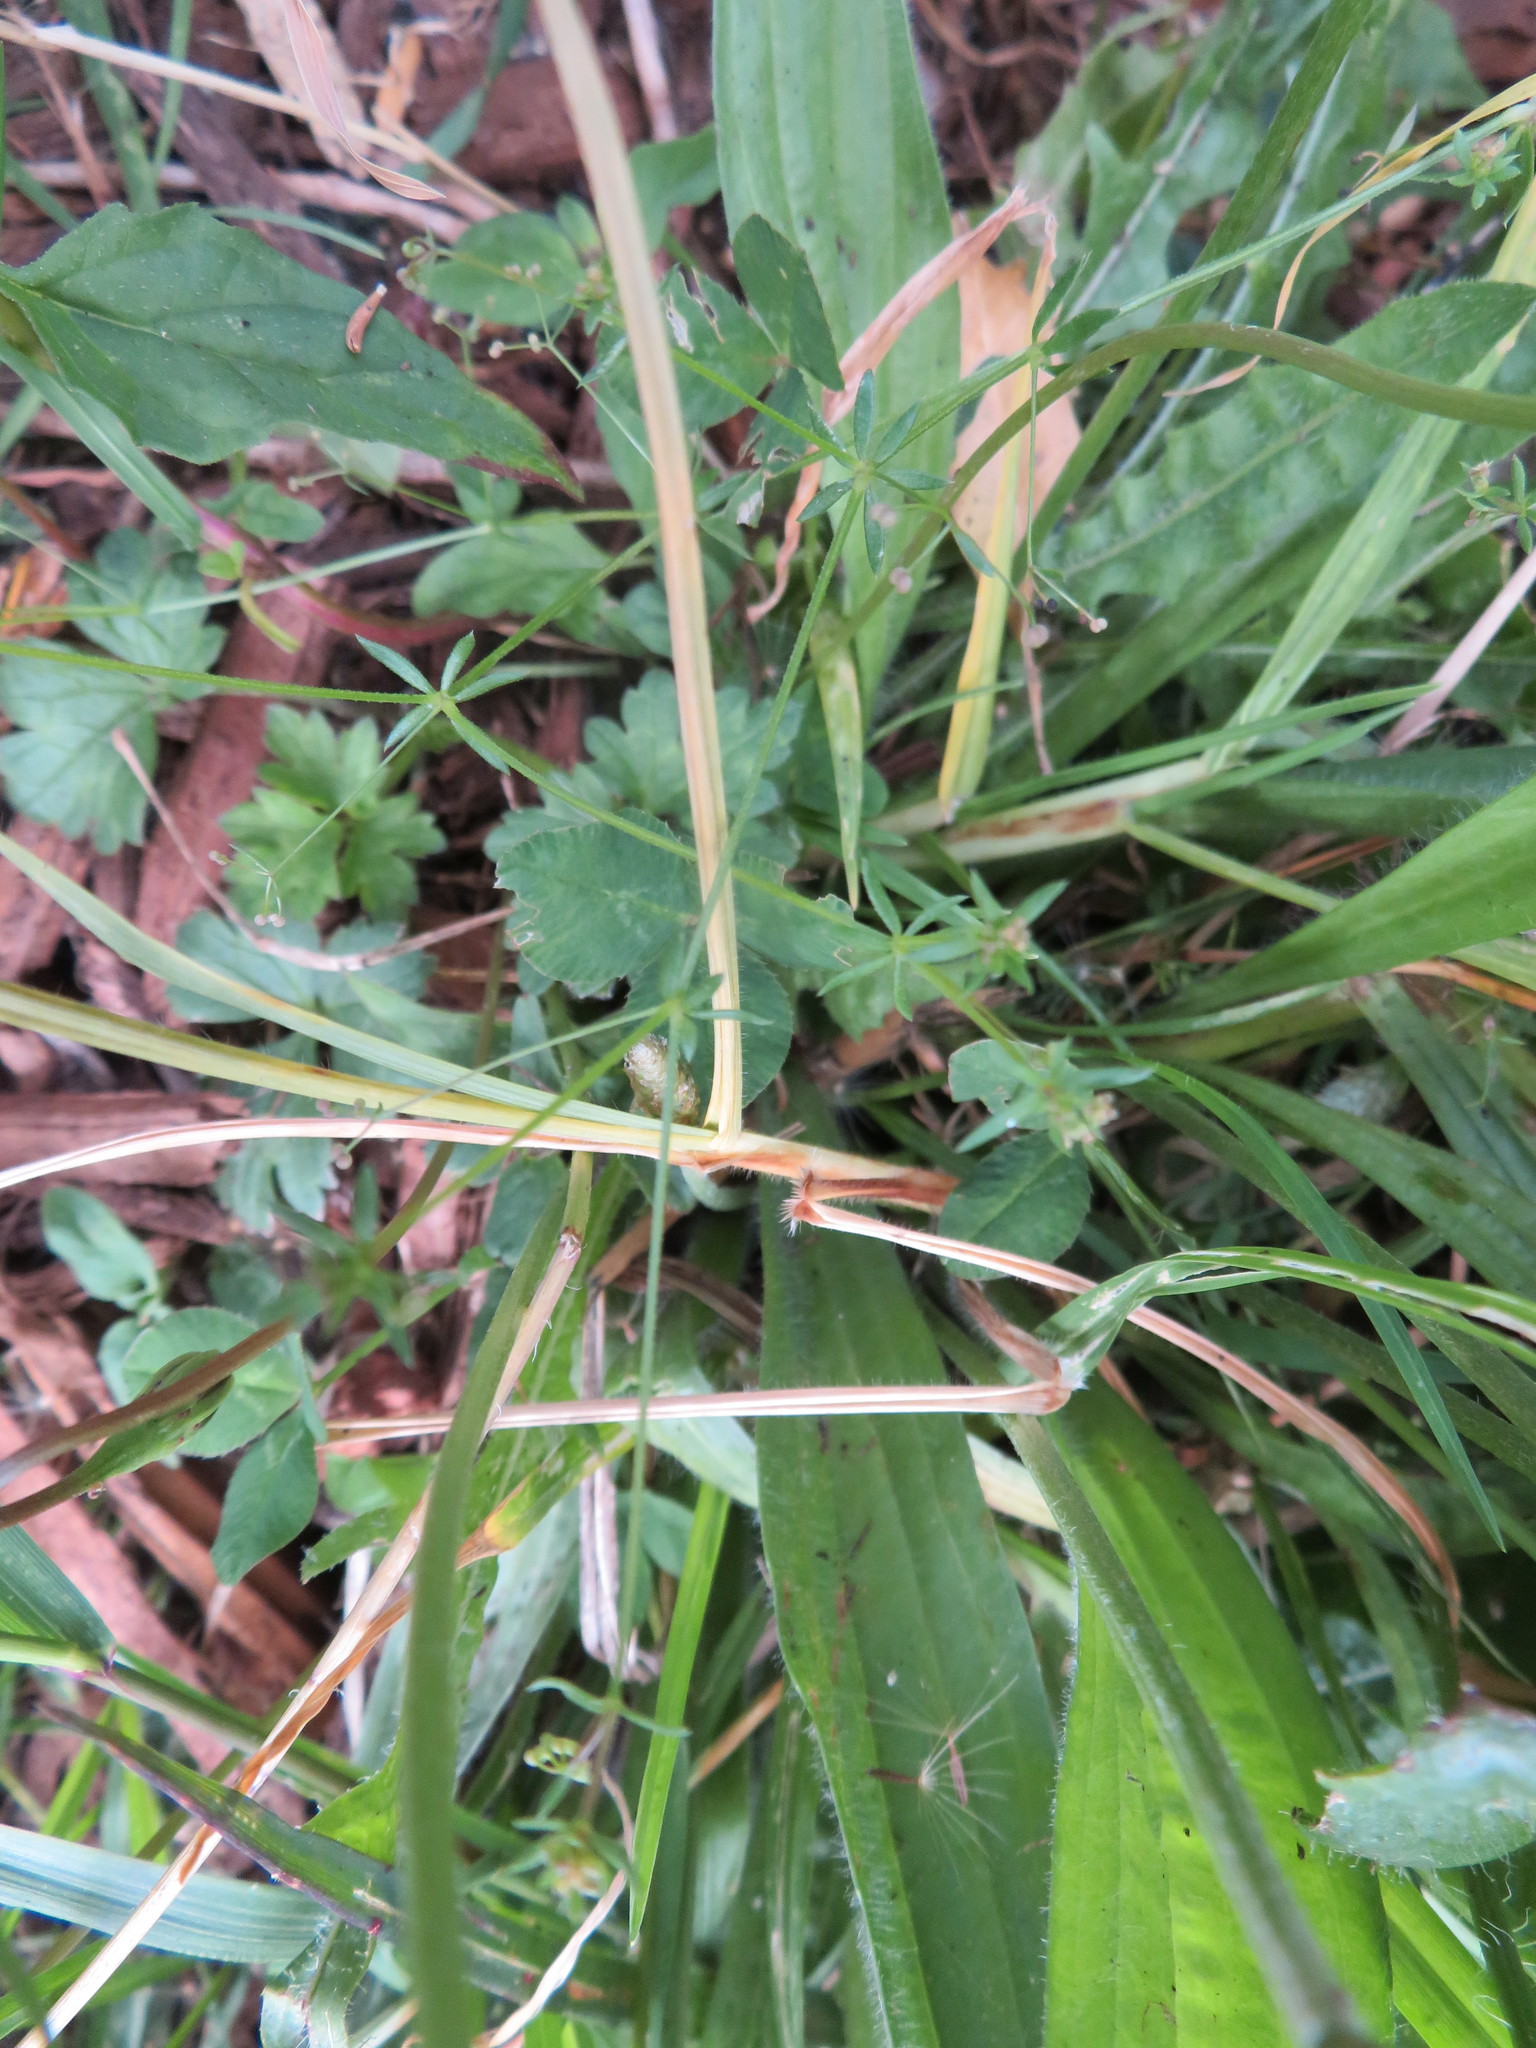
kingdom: Plantae
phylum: Tracheophyta
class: Magnoliopsida
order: Lamiales
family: Plantaginaceae
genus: Plantago
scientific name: Plantago lanceolata
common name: Ribwort plantain
